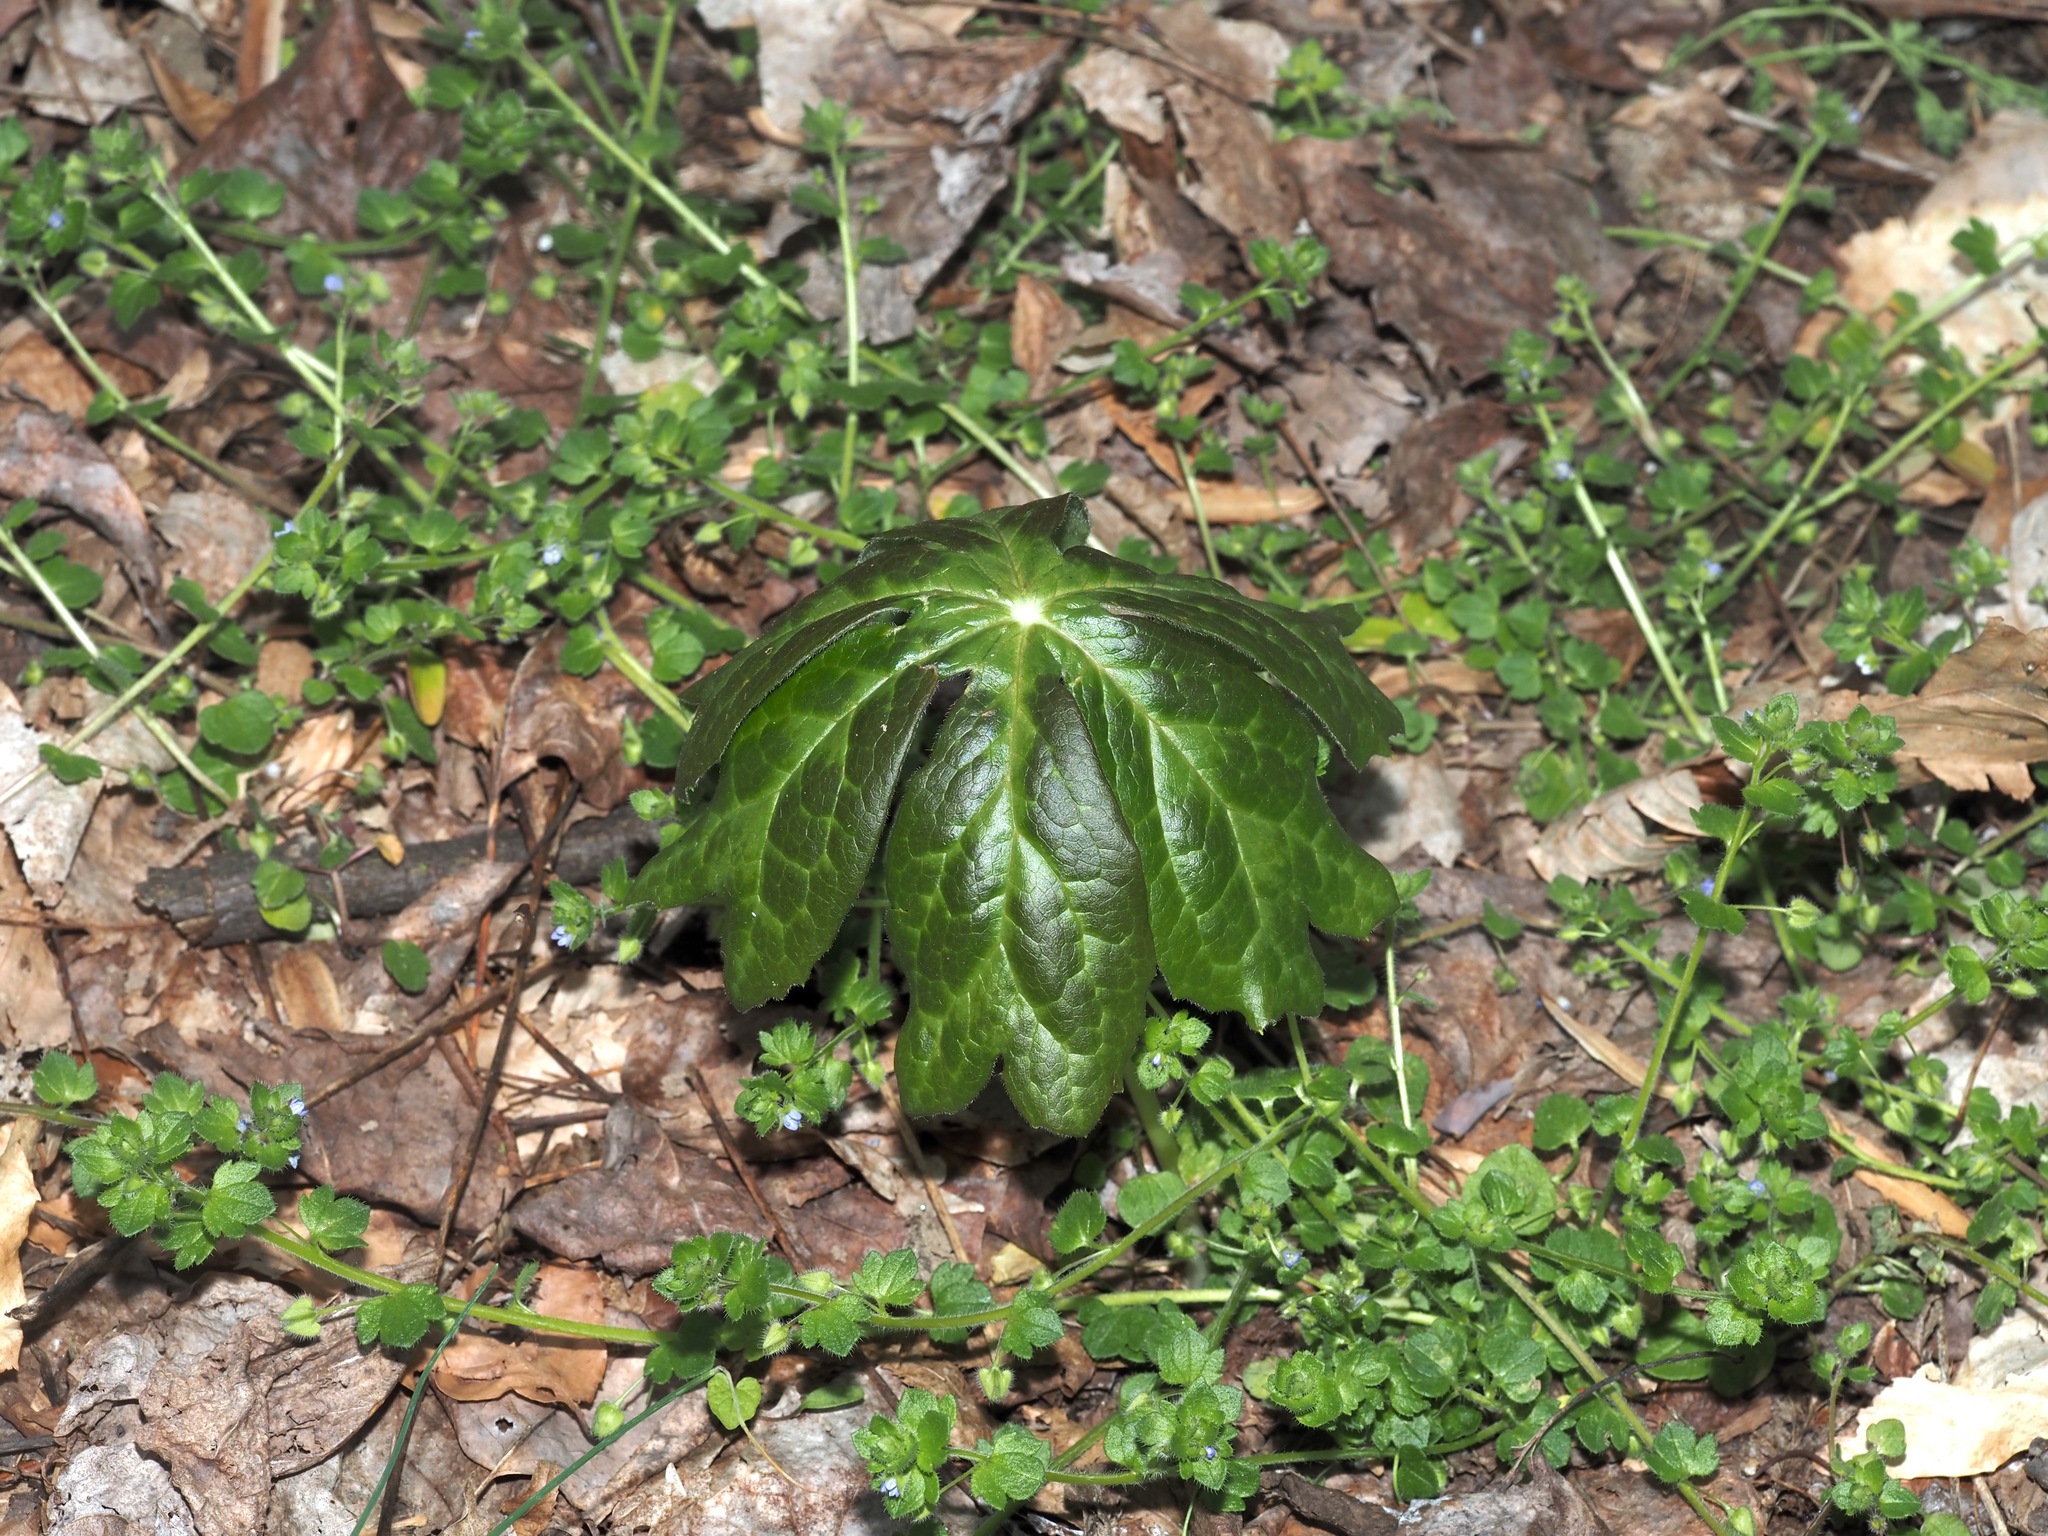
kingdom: Plantae
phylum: Tracheophyta
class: Magnoliopsida
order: Ranunculales
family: Berberidaceae
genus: Podophyllum
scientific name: Podophyllum peltatum
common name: Wild mandrake
